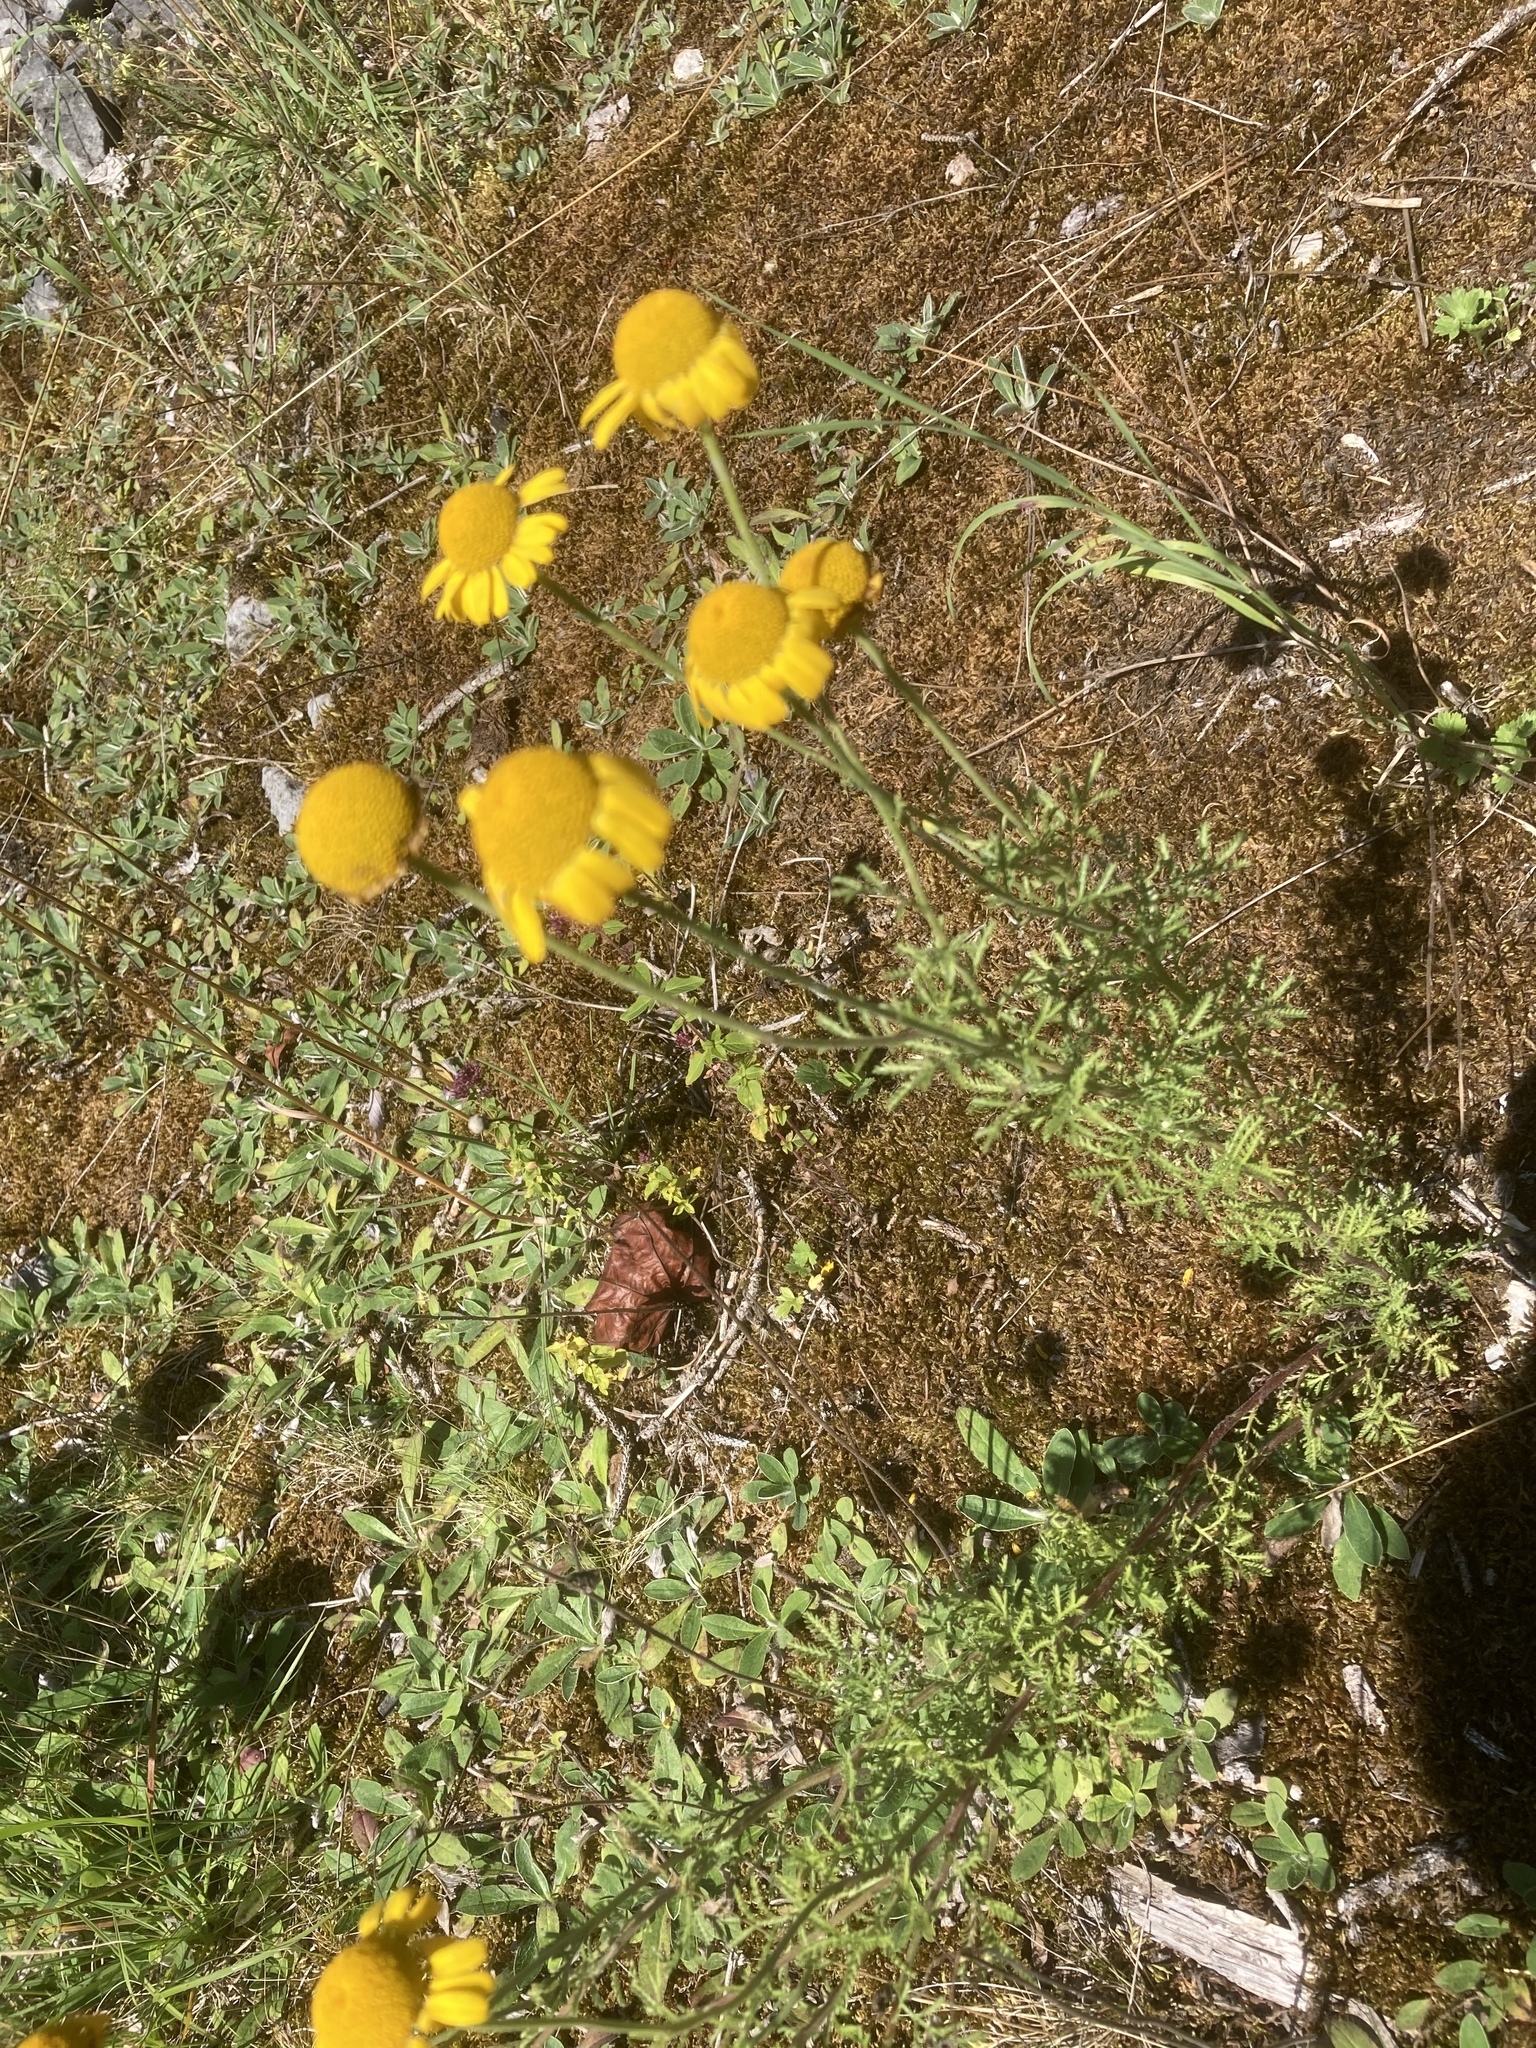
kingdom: Plantae
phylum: Tracheophyta
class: Magnoliopsida
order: Asterales
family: Asteraceae
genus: Cota
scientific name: Cota tinctoria
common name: Golden chamomile
